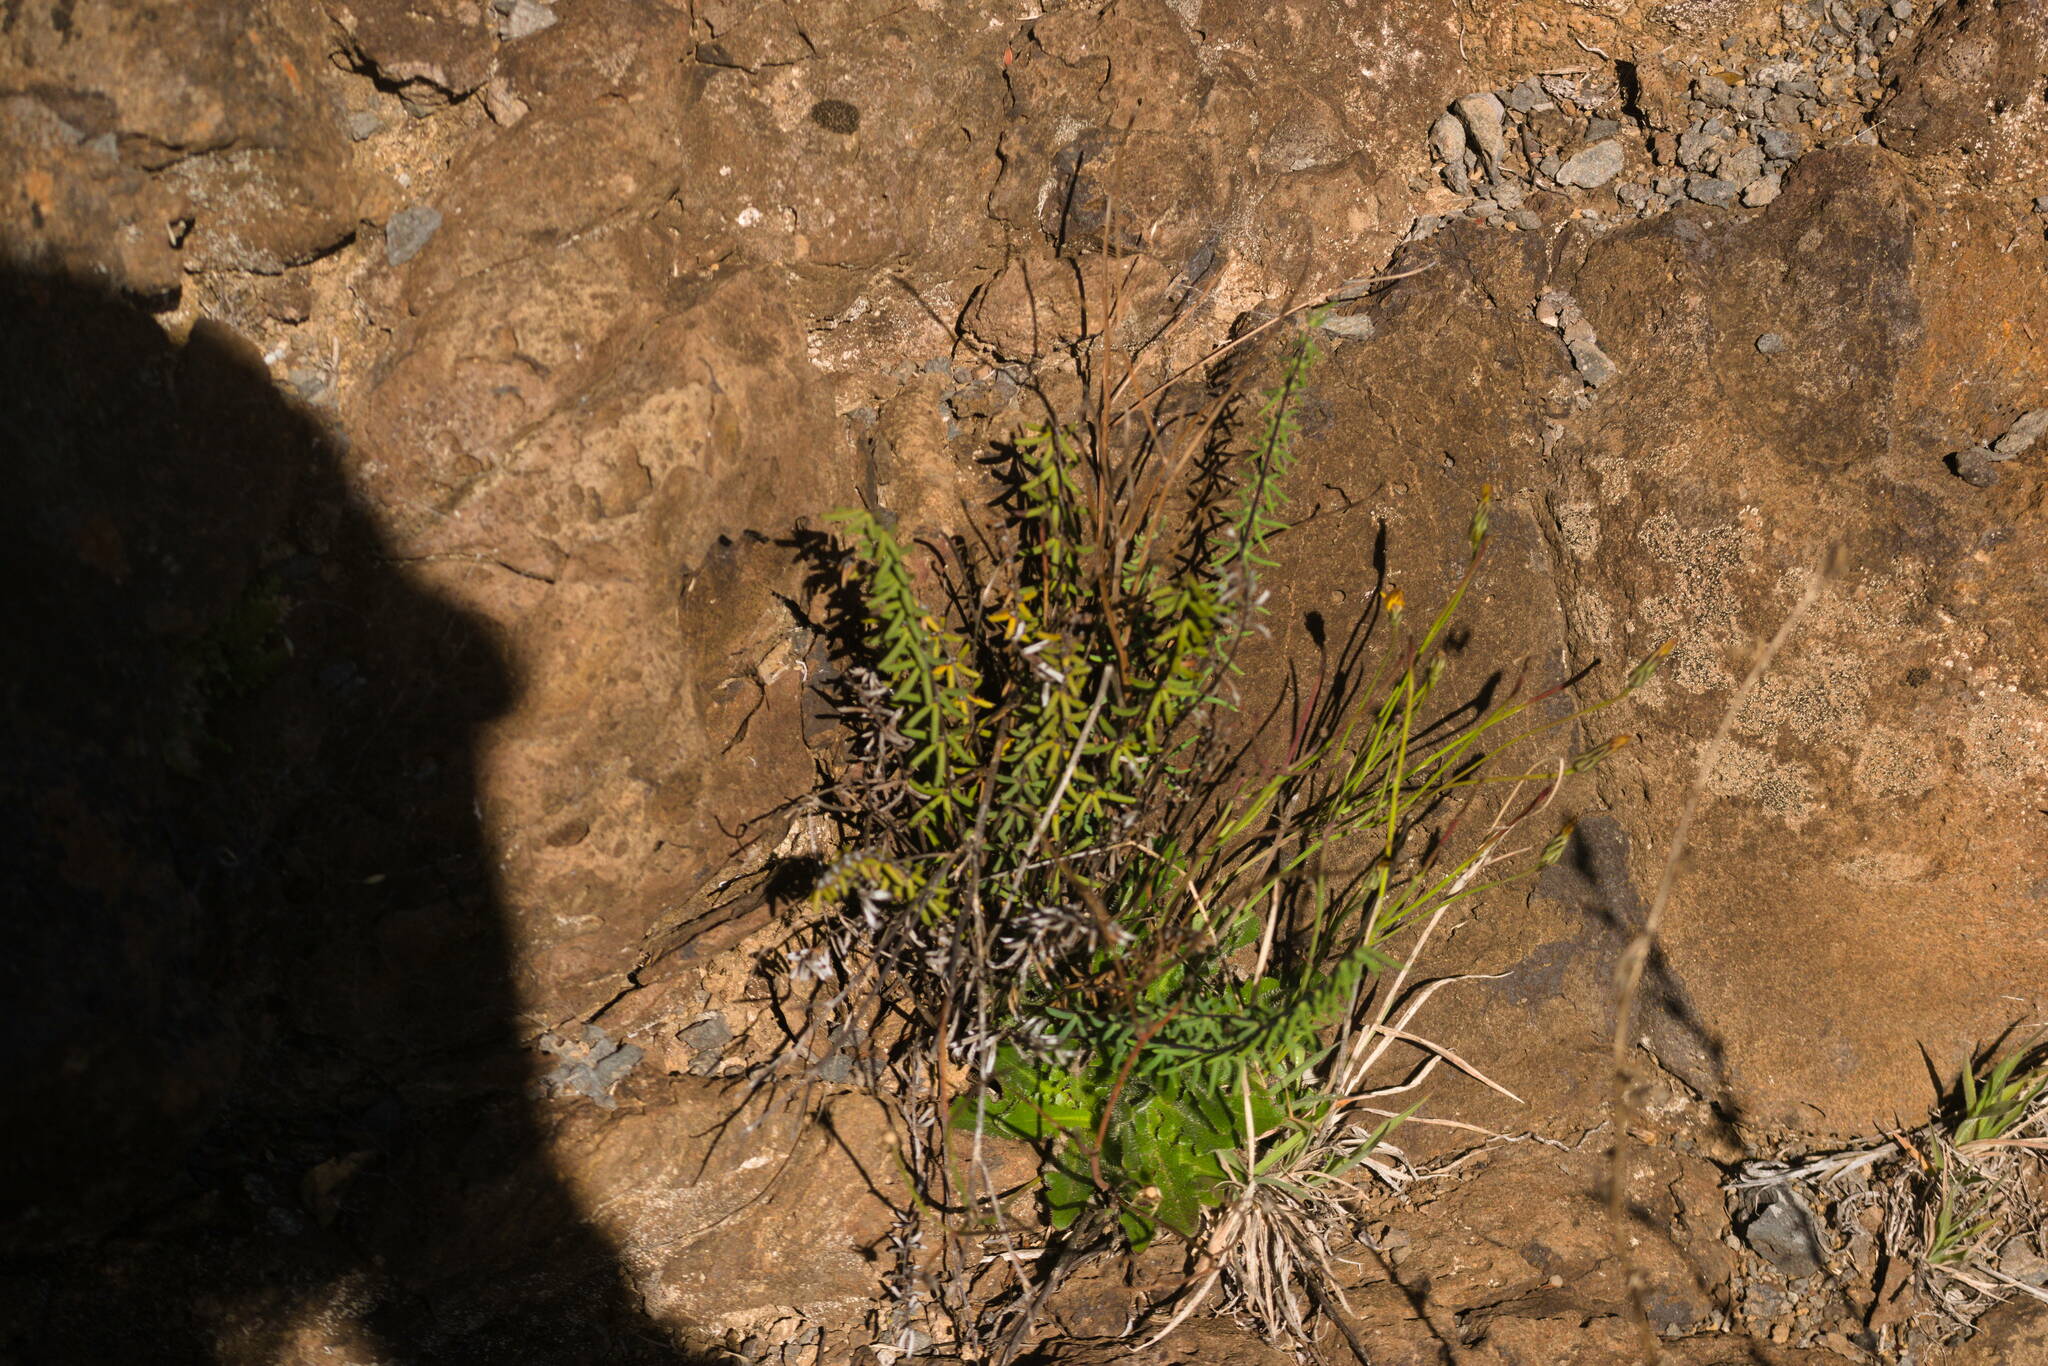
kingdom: Plantae
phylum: Tracheophyta
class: Polypodiopsida
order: Polypodiales
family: Pteridaceae
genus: Pellaea
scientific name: Pellaea ternifolia
